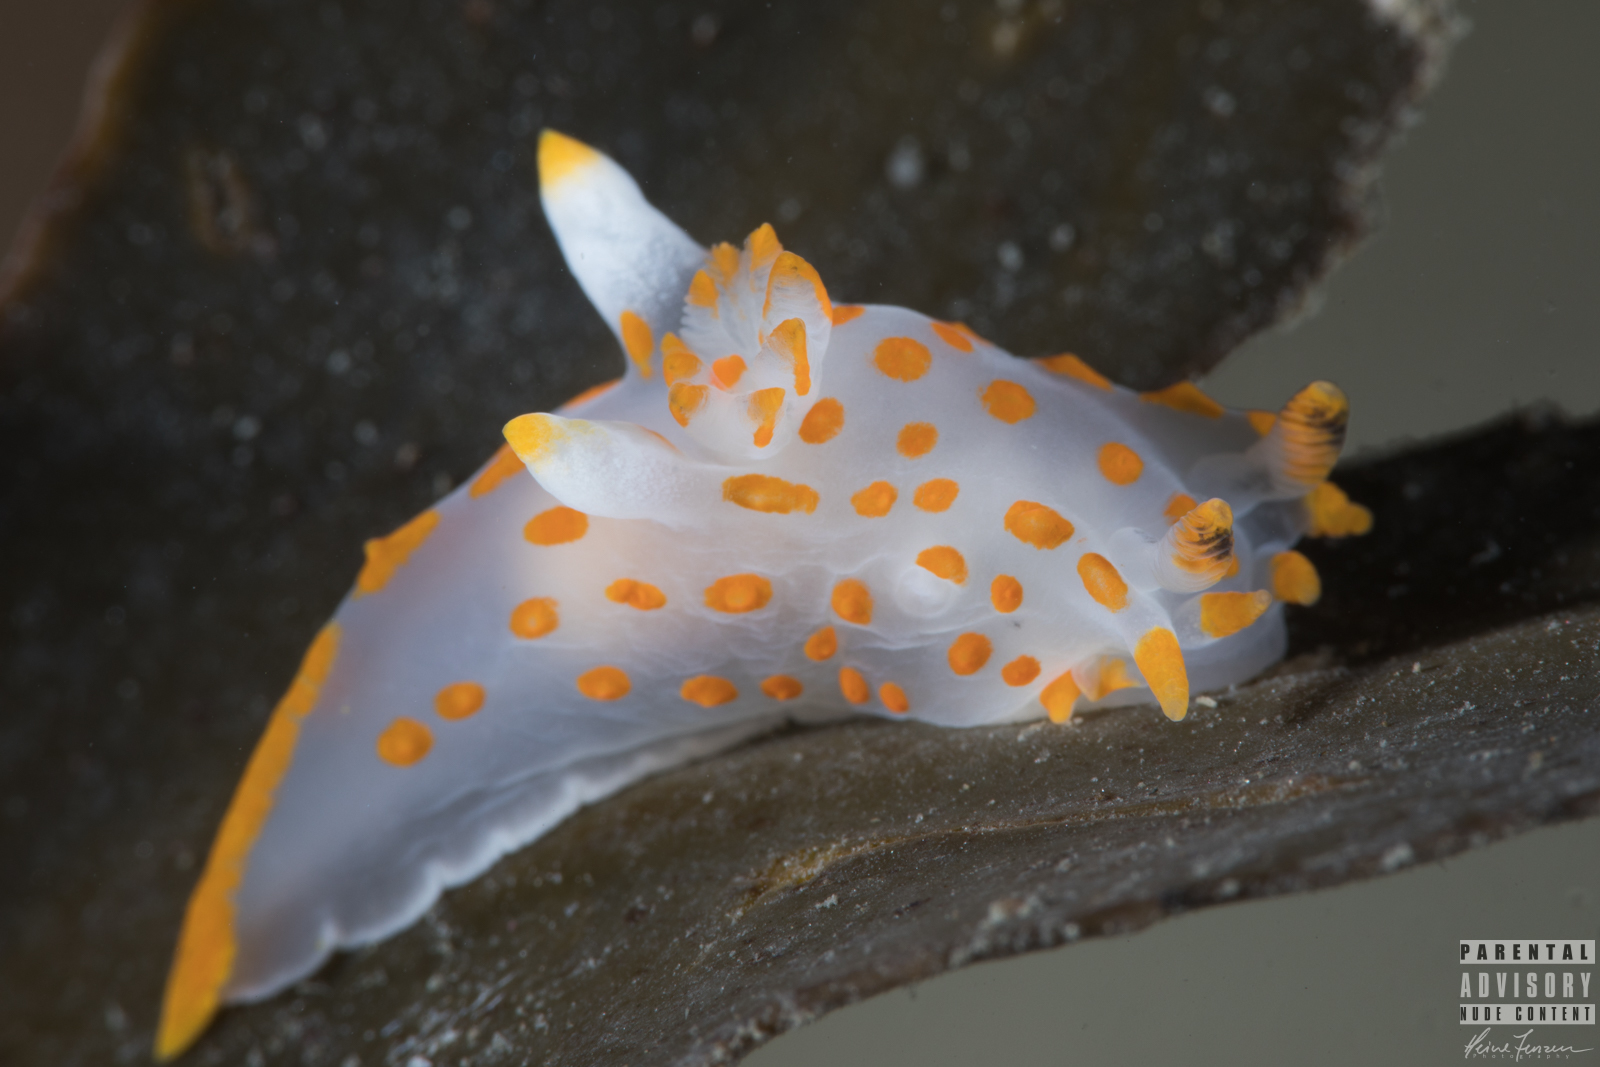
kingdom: Animalia
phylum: Mollusca
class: Gastropoda
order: Nudibranchia
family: Polyceridae
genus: Polycera
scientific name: Polycera quadrilineata
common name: Four-striped polycera
